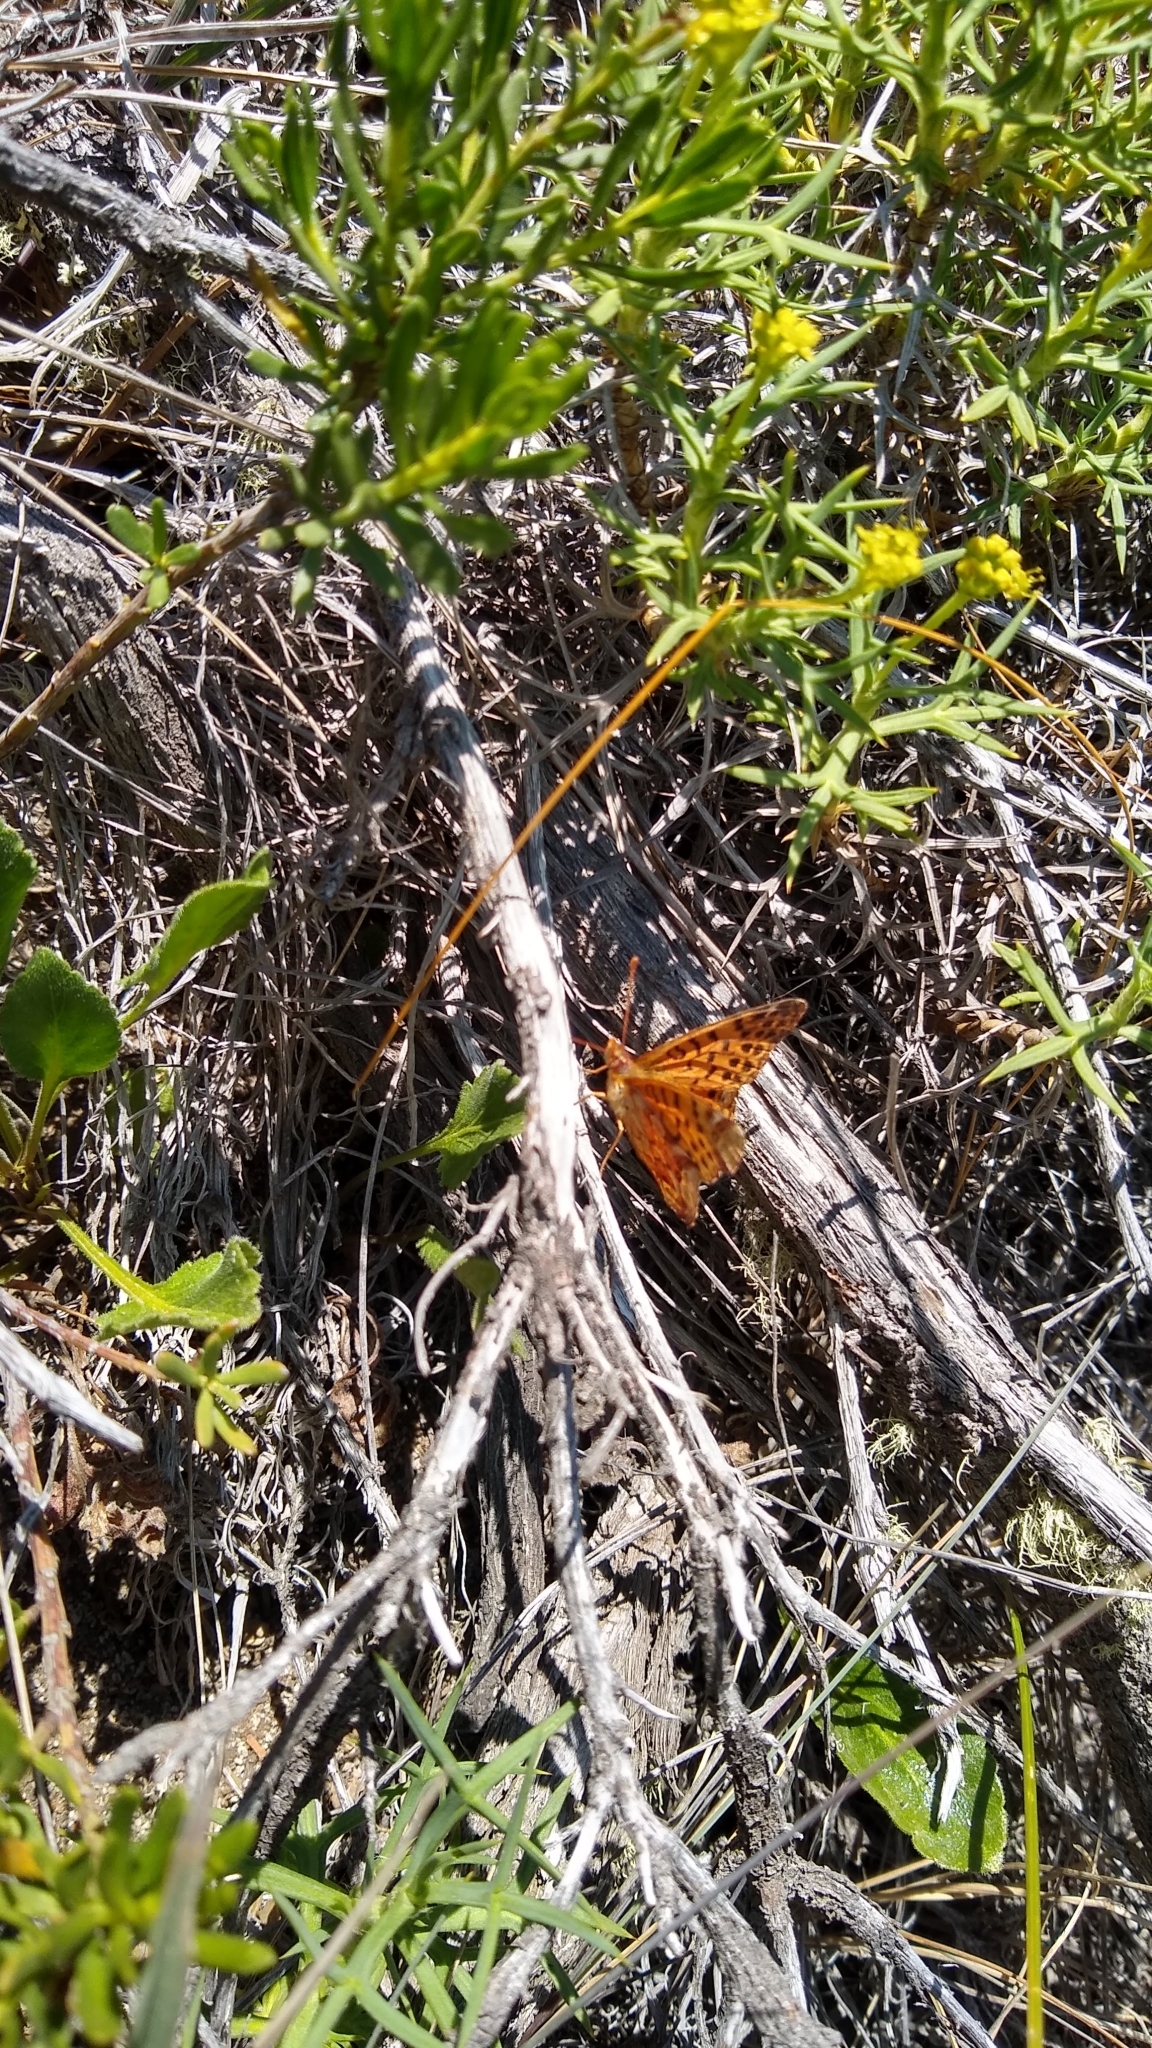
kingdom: Animalia
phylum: Arthropoda
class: Insecta
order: Lepidoptera
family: Nymphalidae
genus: Issoria
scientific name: Issoria Yramea cytheris
